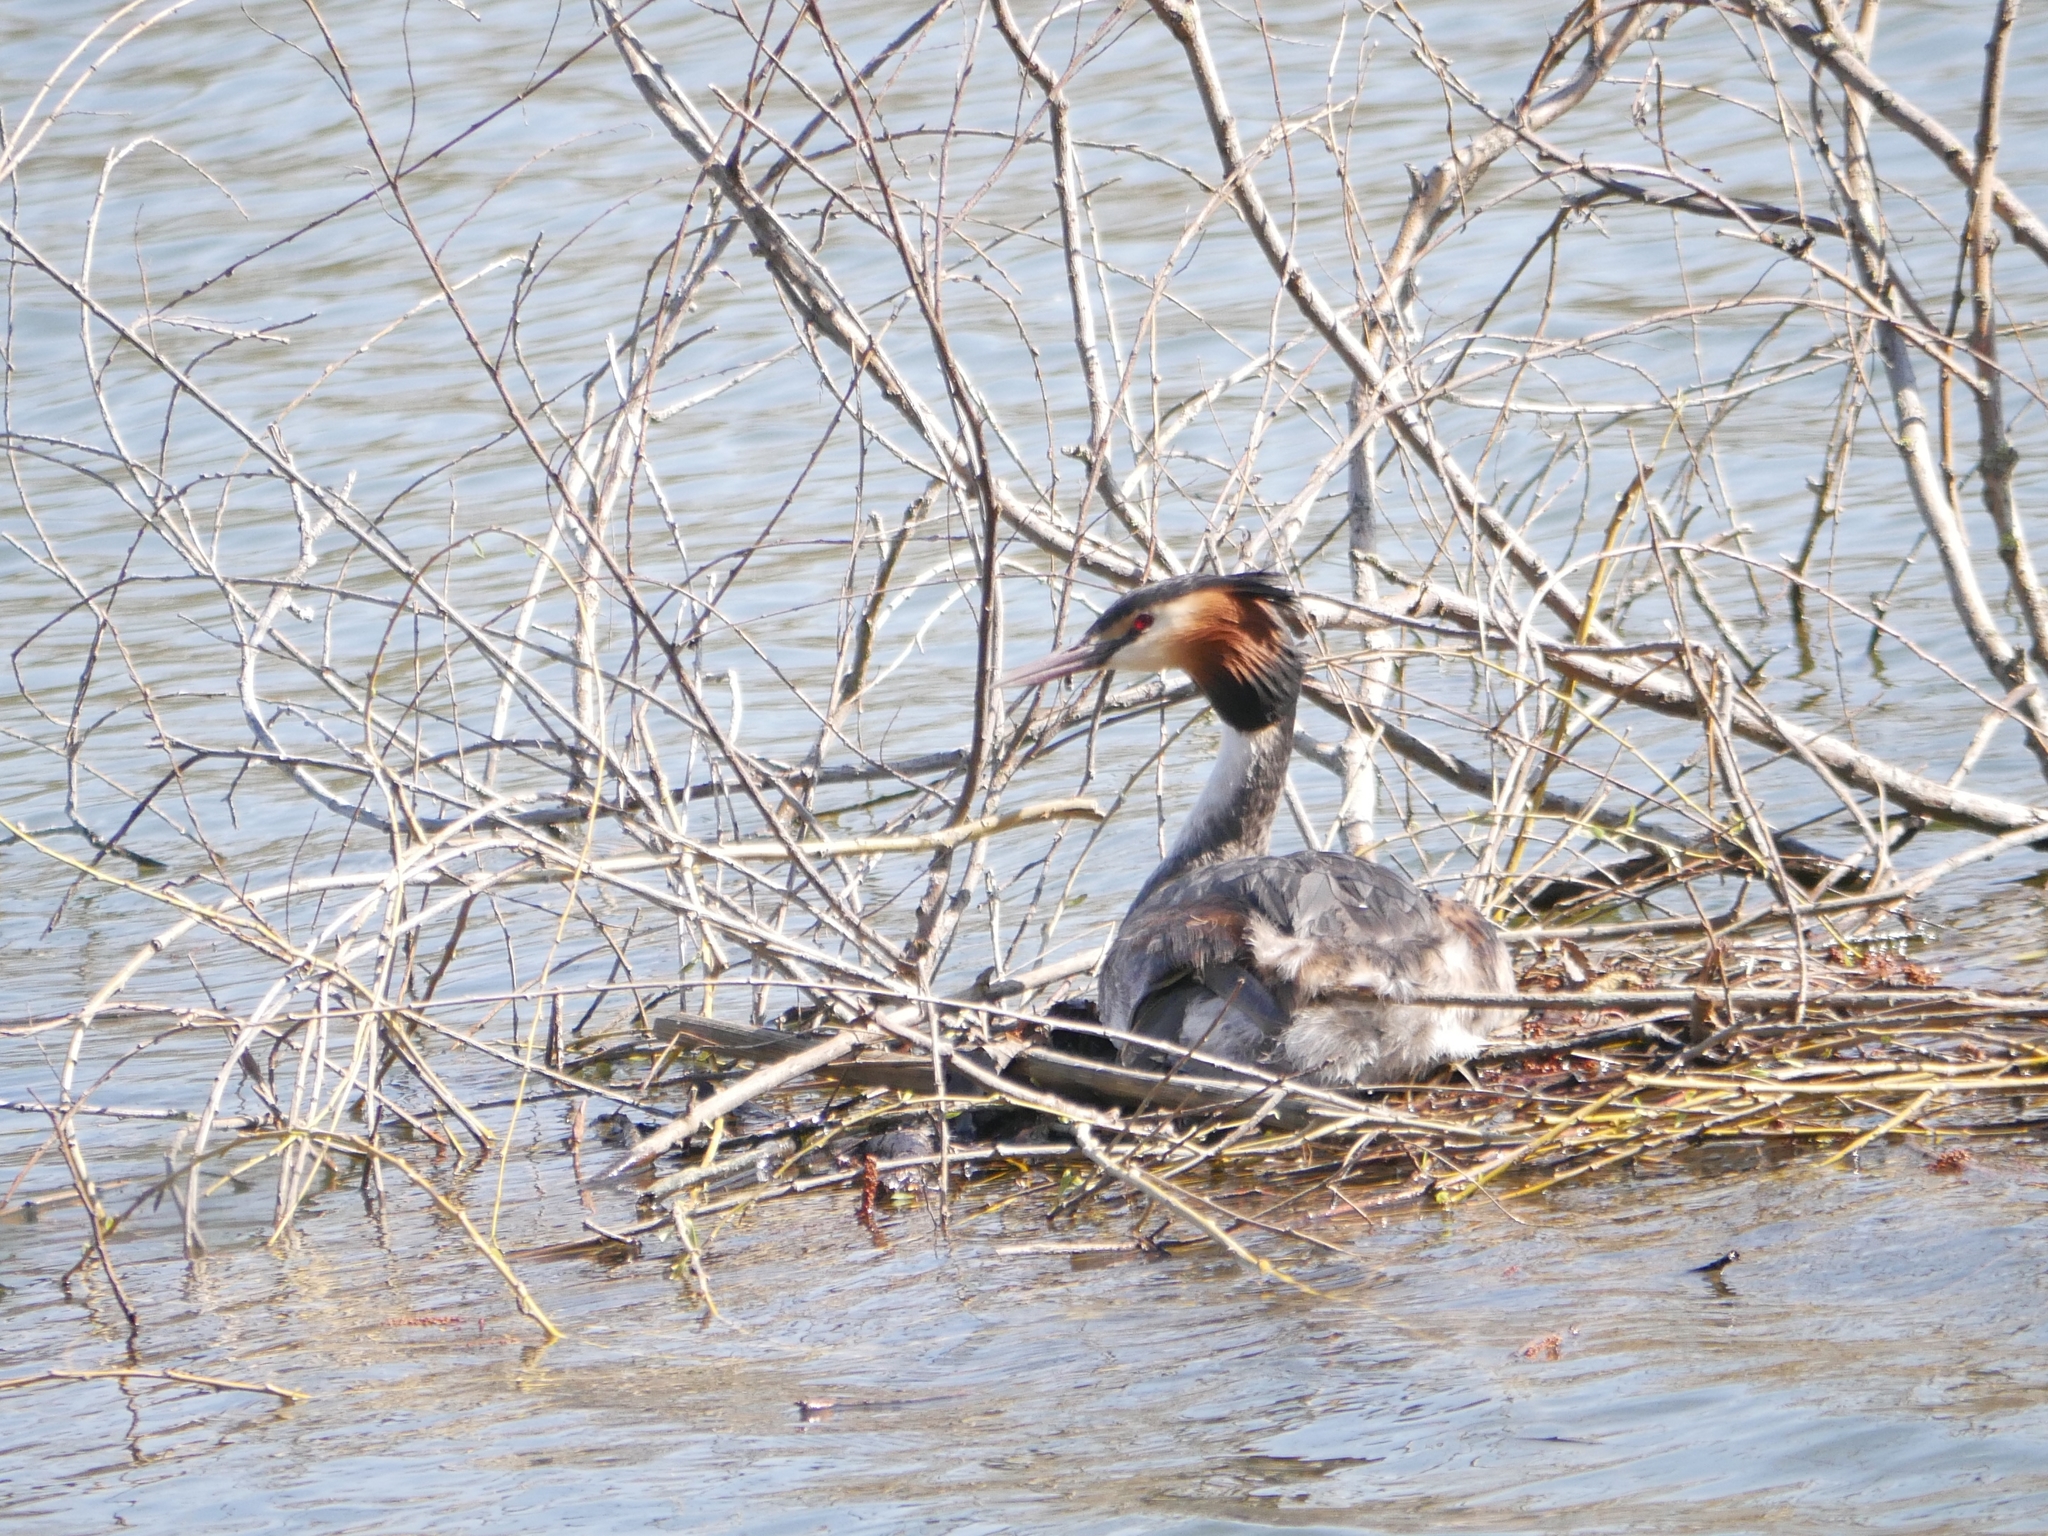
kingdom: Animalia
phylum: Chordata
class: Aves
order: Podicipediformes
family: Podicipedidae
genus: Podiceps
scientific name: Podiceps cristatus
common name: Great crested grebe
